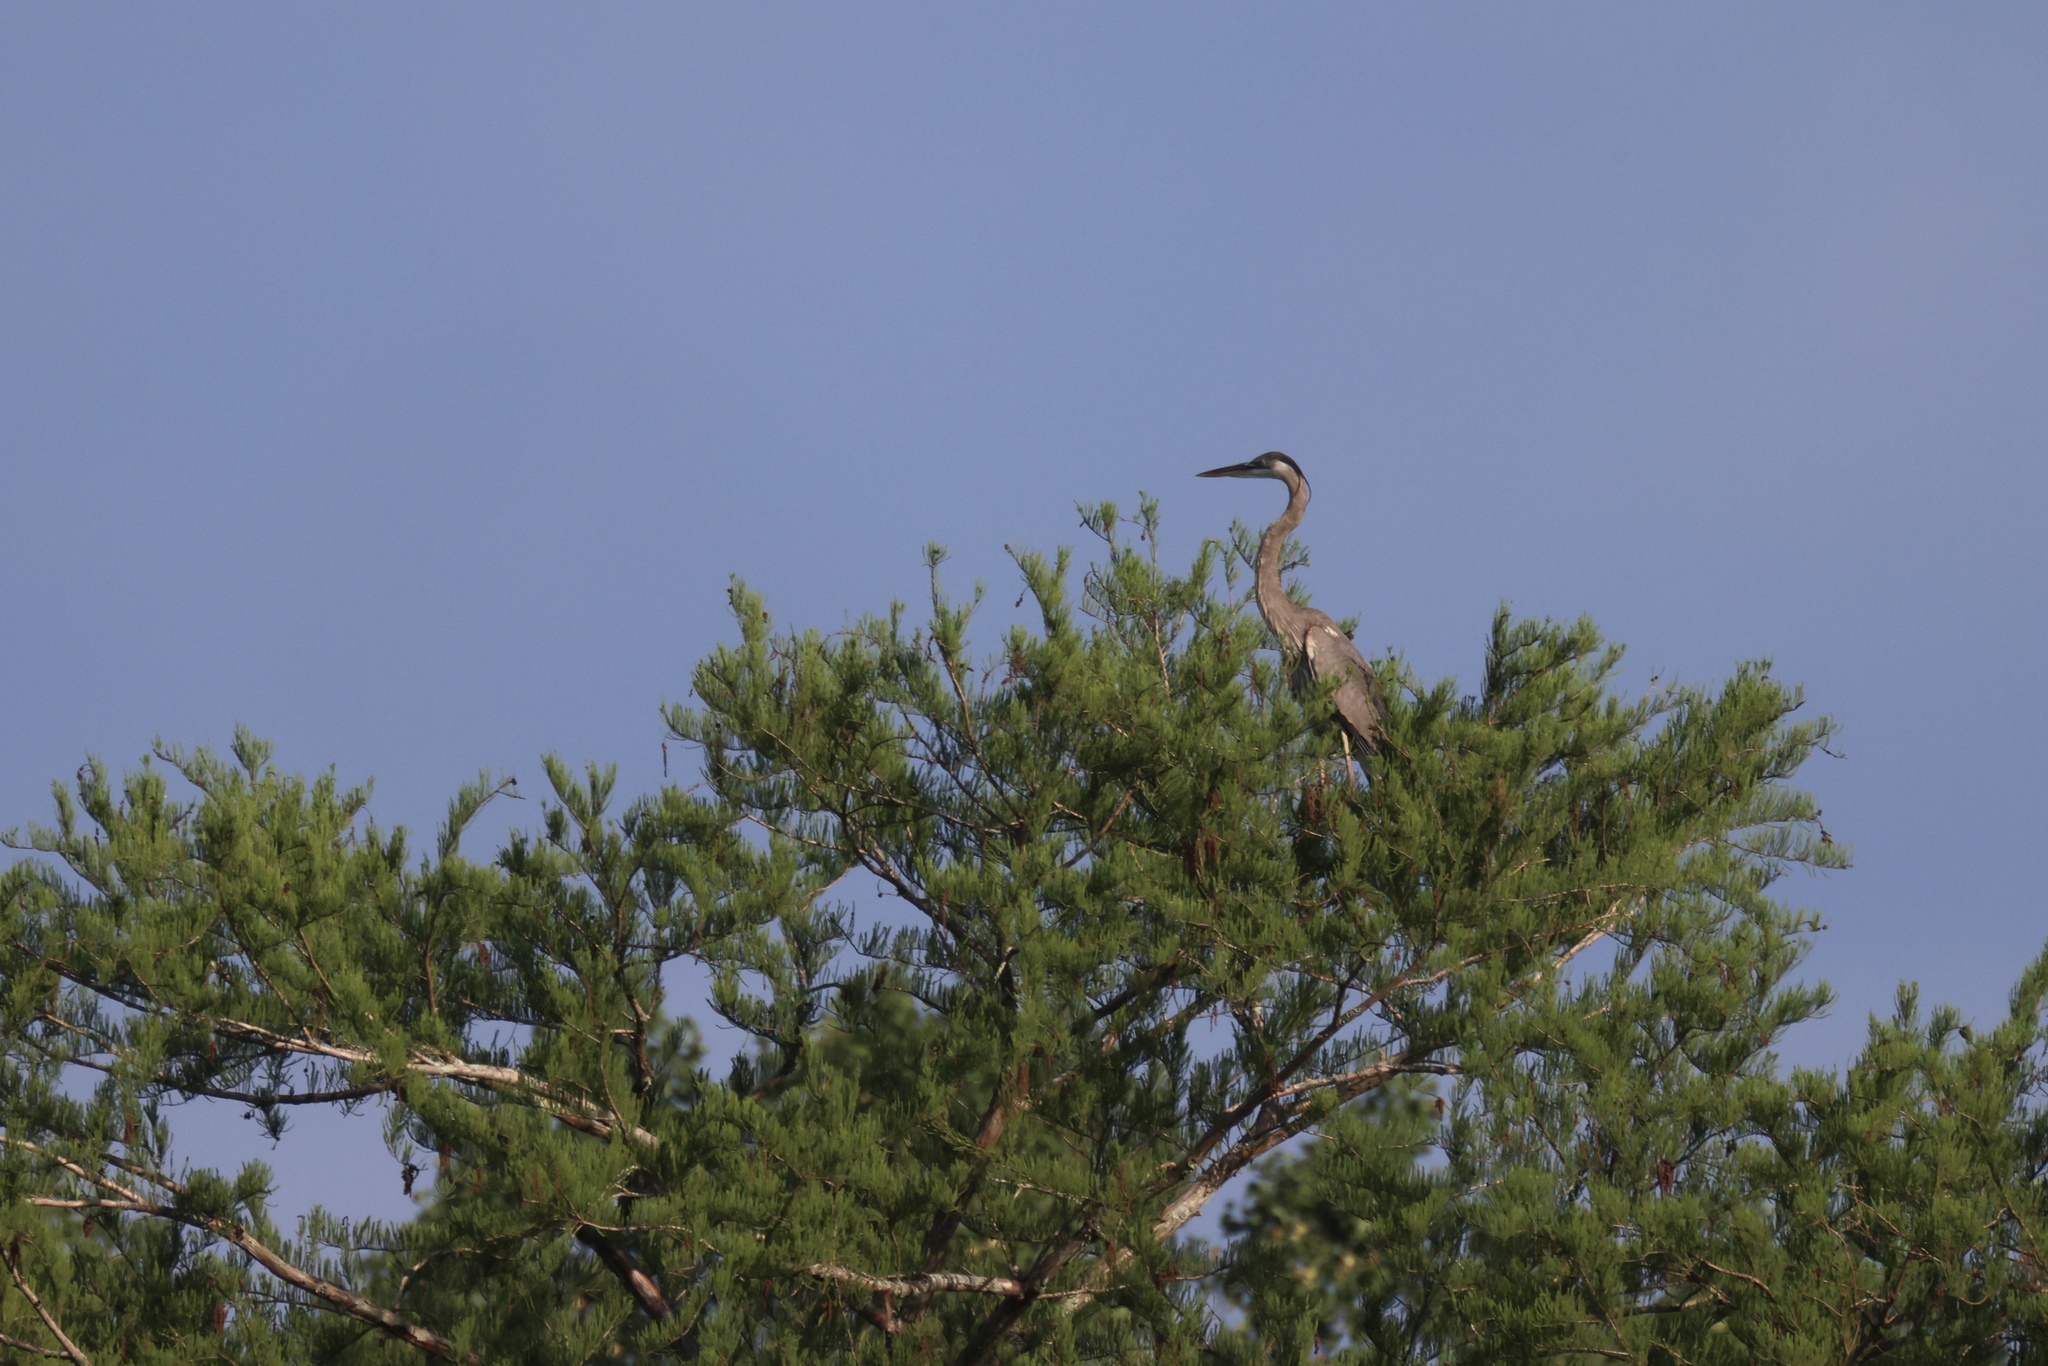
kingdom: Animalia
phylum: Chordata
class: Aves
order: Pelecaniformes
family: Ardeidae
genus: Ardea
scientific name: Ardea herodias
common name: Great blue heron
